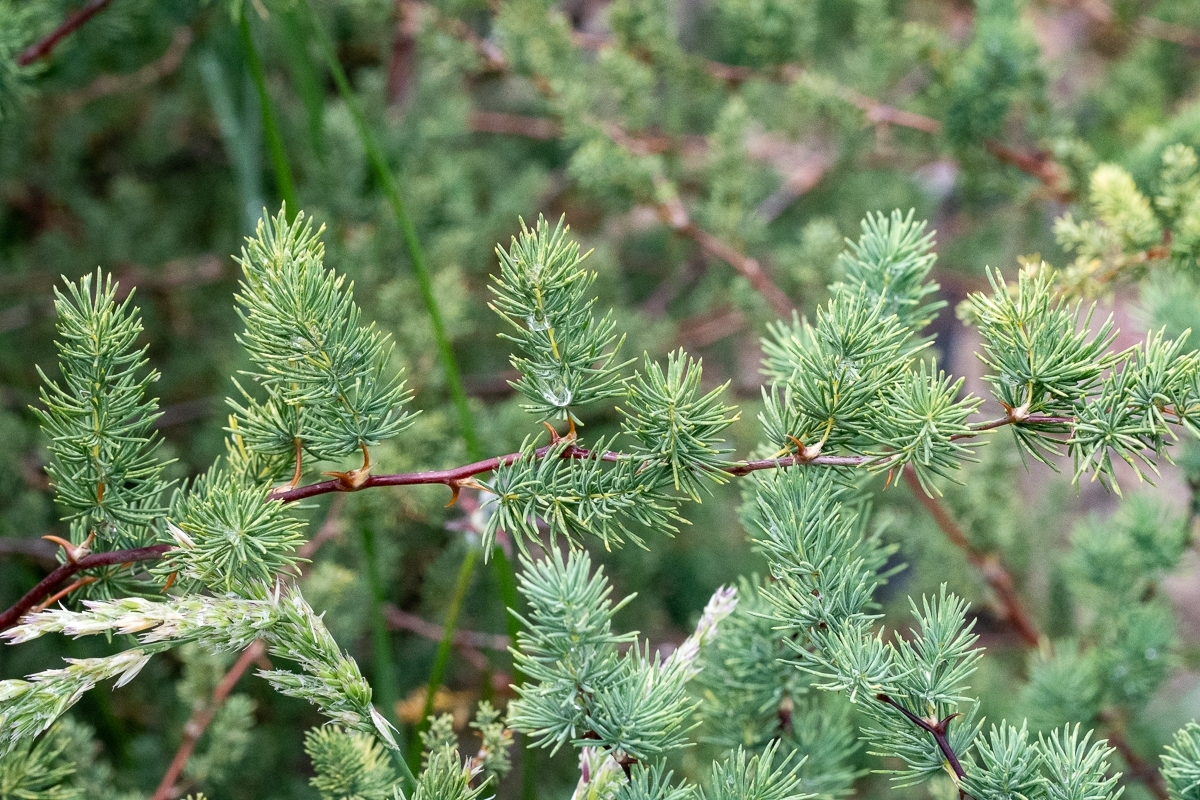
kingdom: Plantae
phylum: Tracheophyta
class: Liliopsida
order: Asparagales
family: Asparagaceae
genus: Asparagus
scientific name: Asparagus rubicundus
